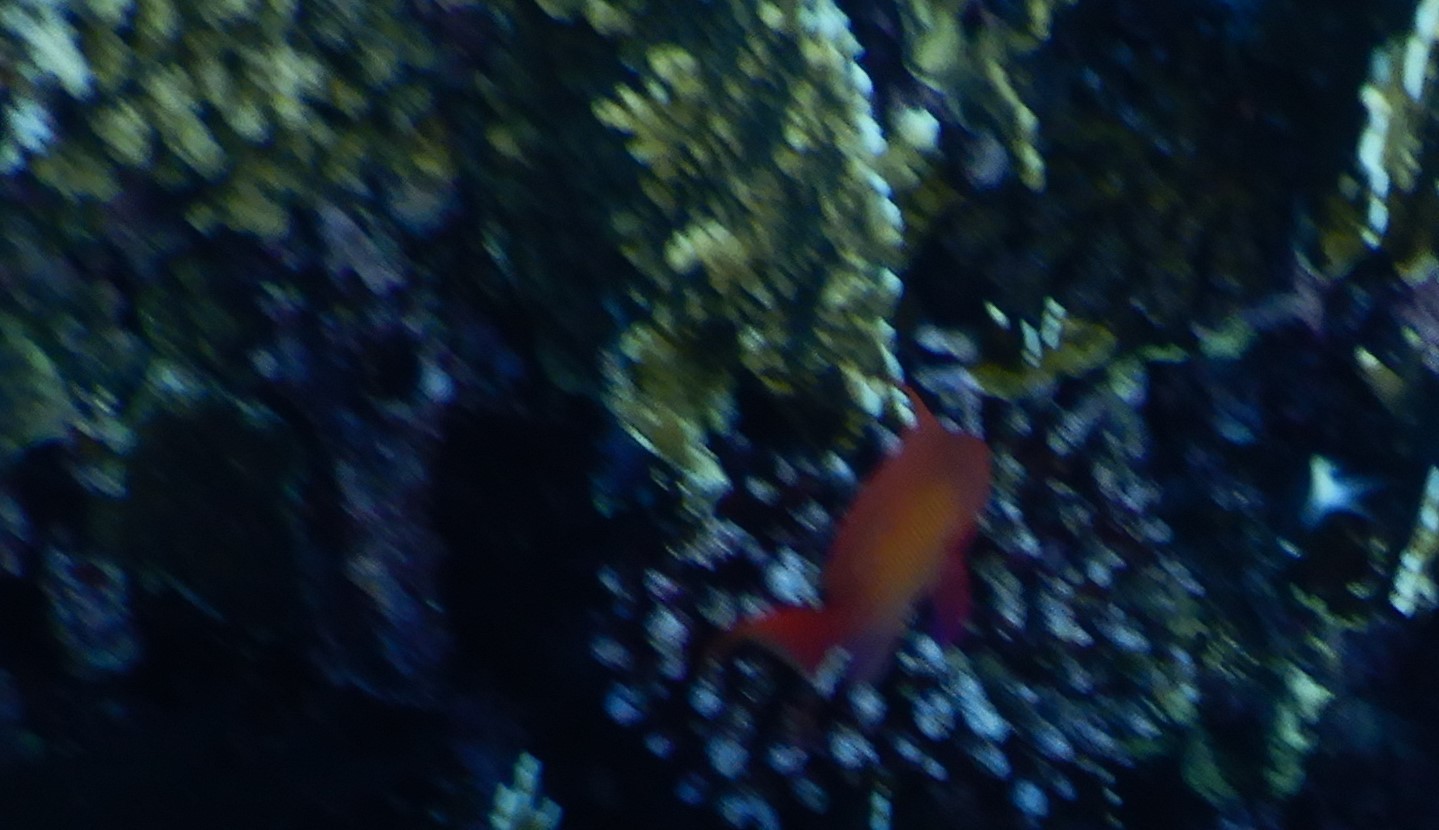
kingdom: Animalia
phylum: Chordata
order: Perciformes
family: Serranidae
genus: Pseudanthias
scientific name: Pseudanthias squamipinnis
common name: Scalefin anthias
